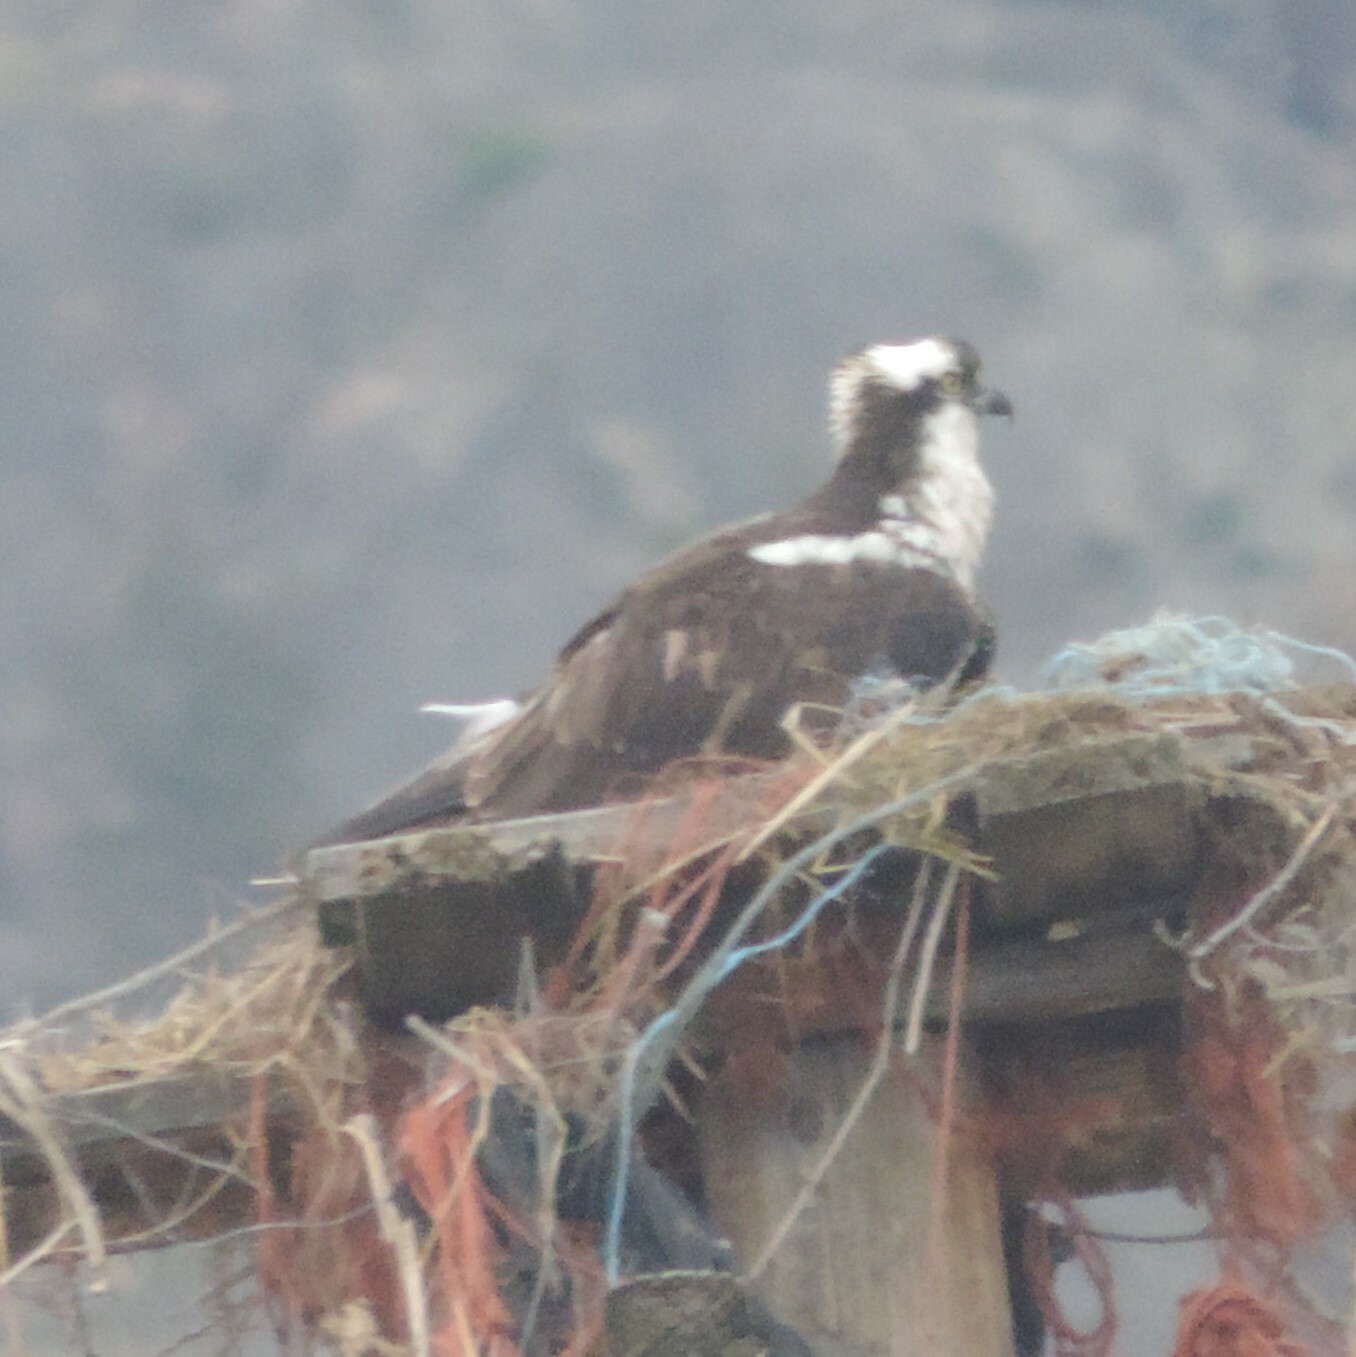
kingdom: Animalia
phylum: Chordata
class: Aves
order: Accipitriformes
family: Pandionidae
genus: Pandion
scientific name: Pandion haliaetus
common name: Osprey
